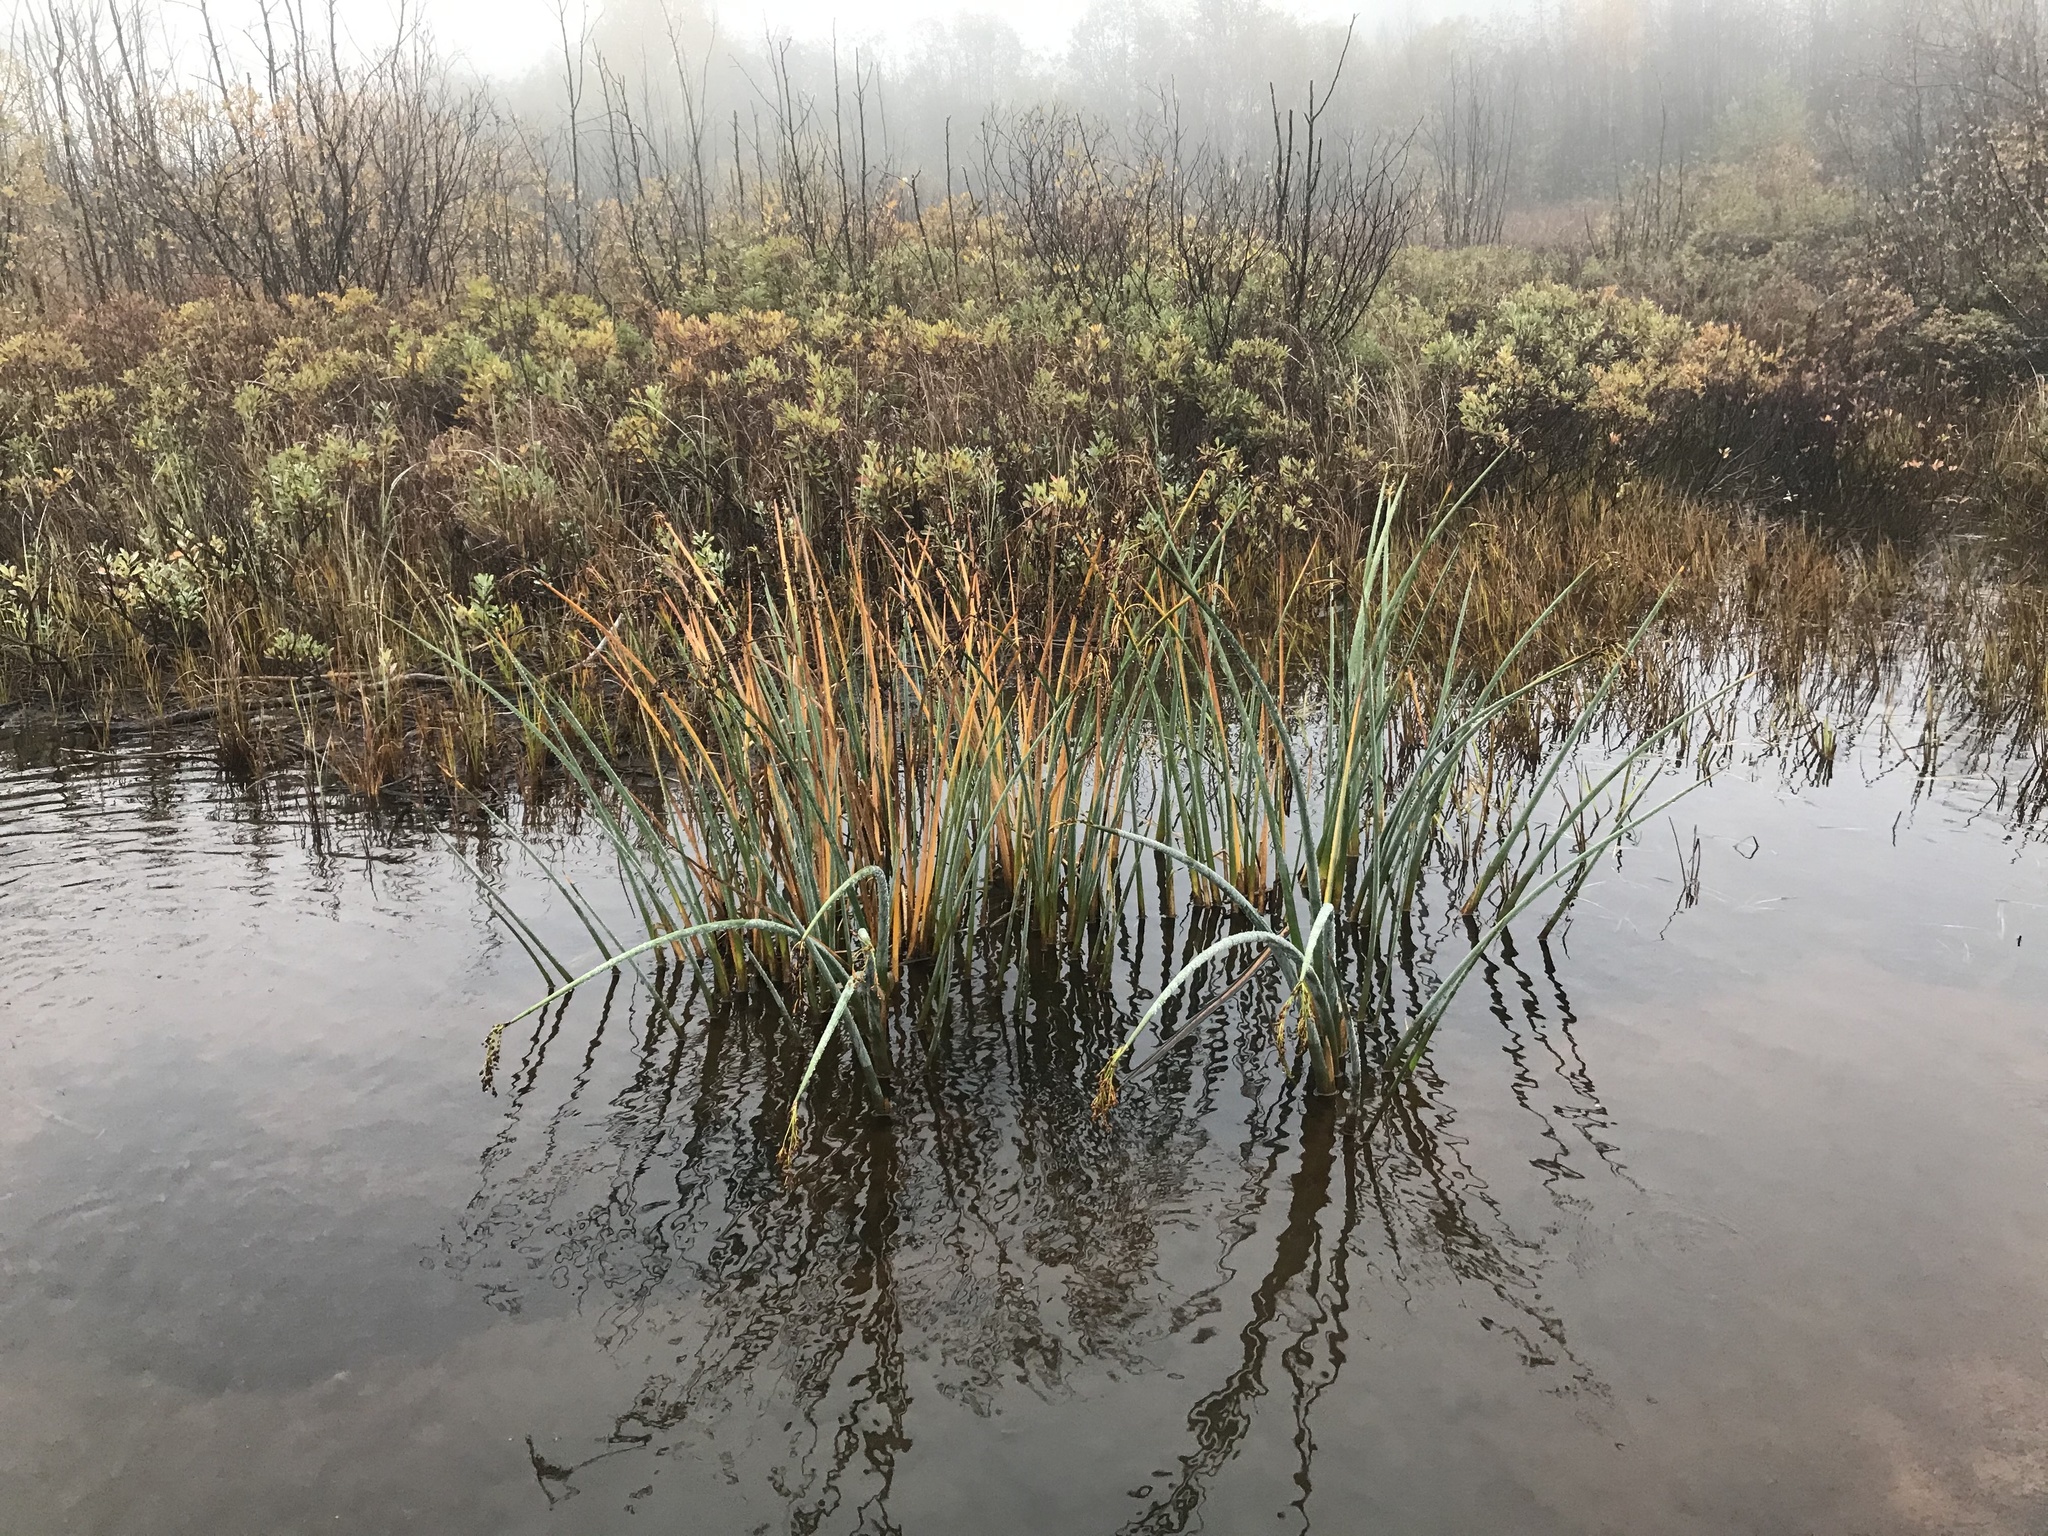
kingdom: Plantae
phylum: Tracheophyta
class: Liliopsida
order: Poales
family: Cyperaceae
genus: Schoenoplectus
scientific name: Schoenoplectus tabernaemontani
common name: Grey club-rush
